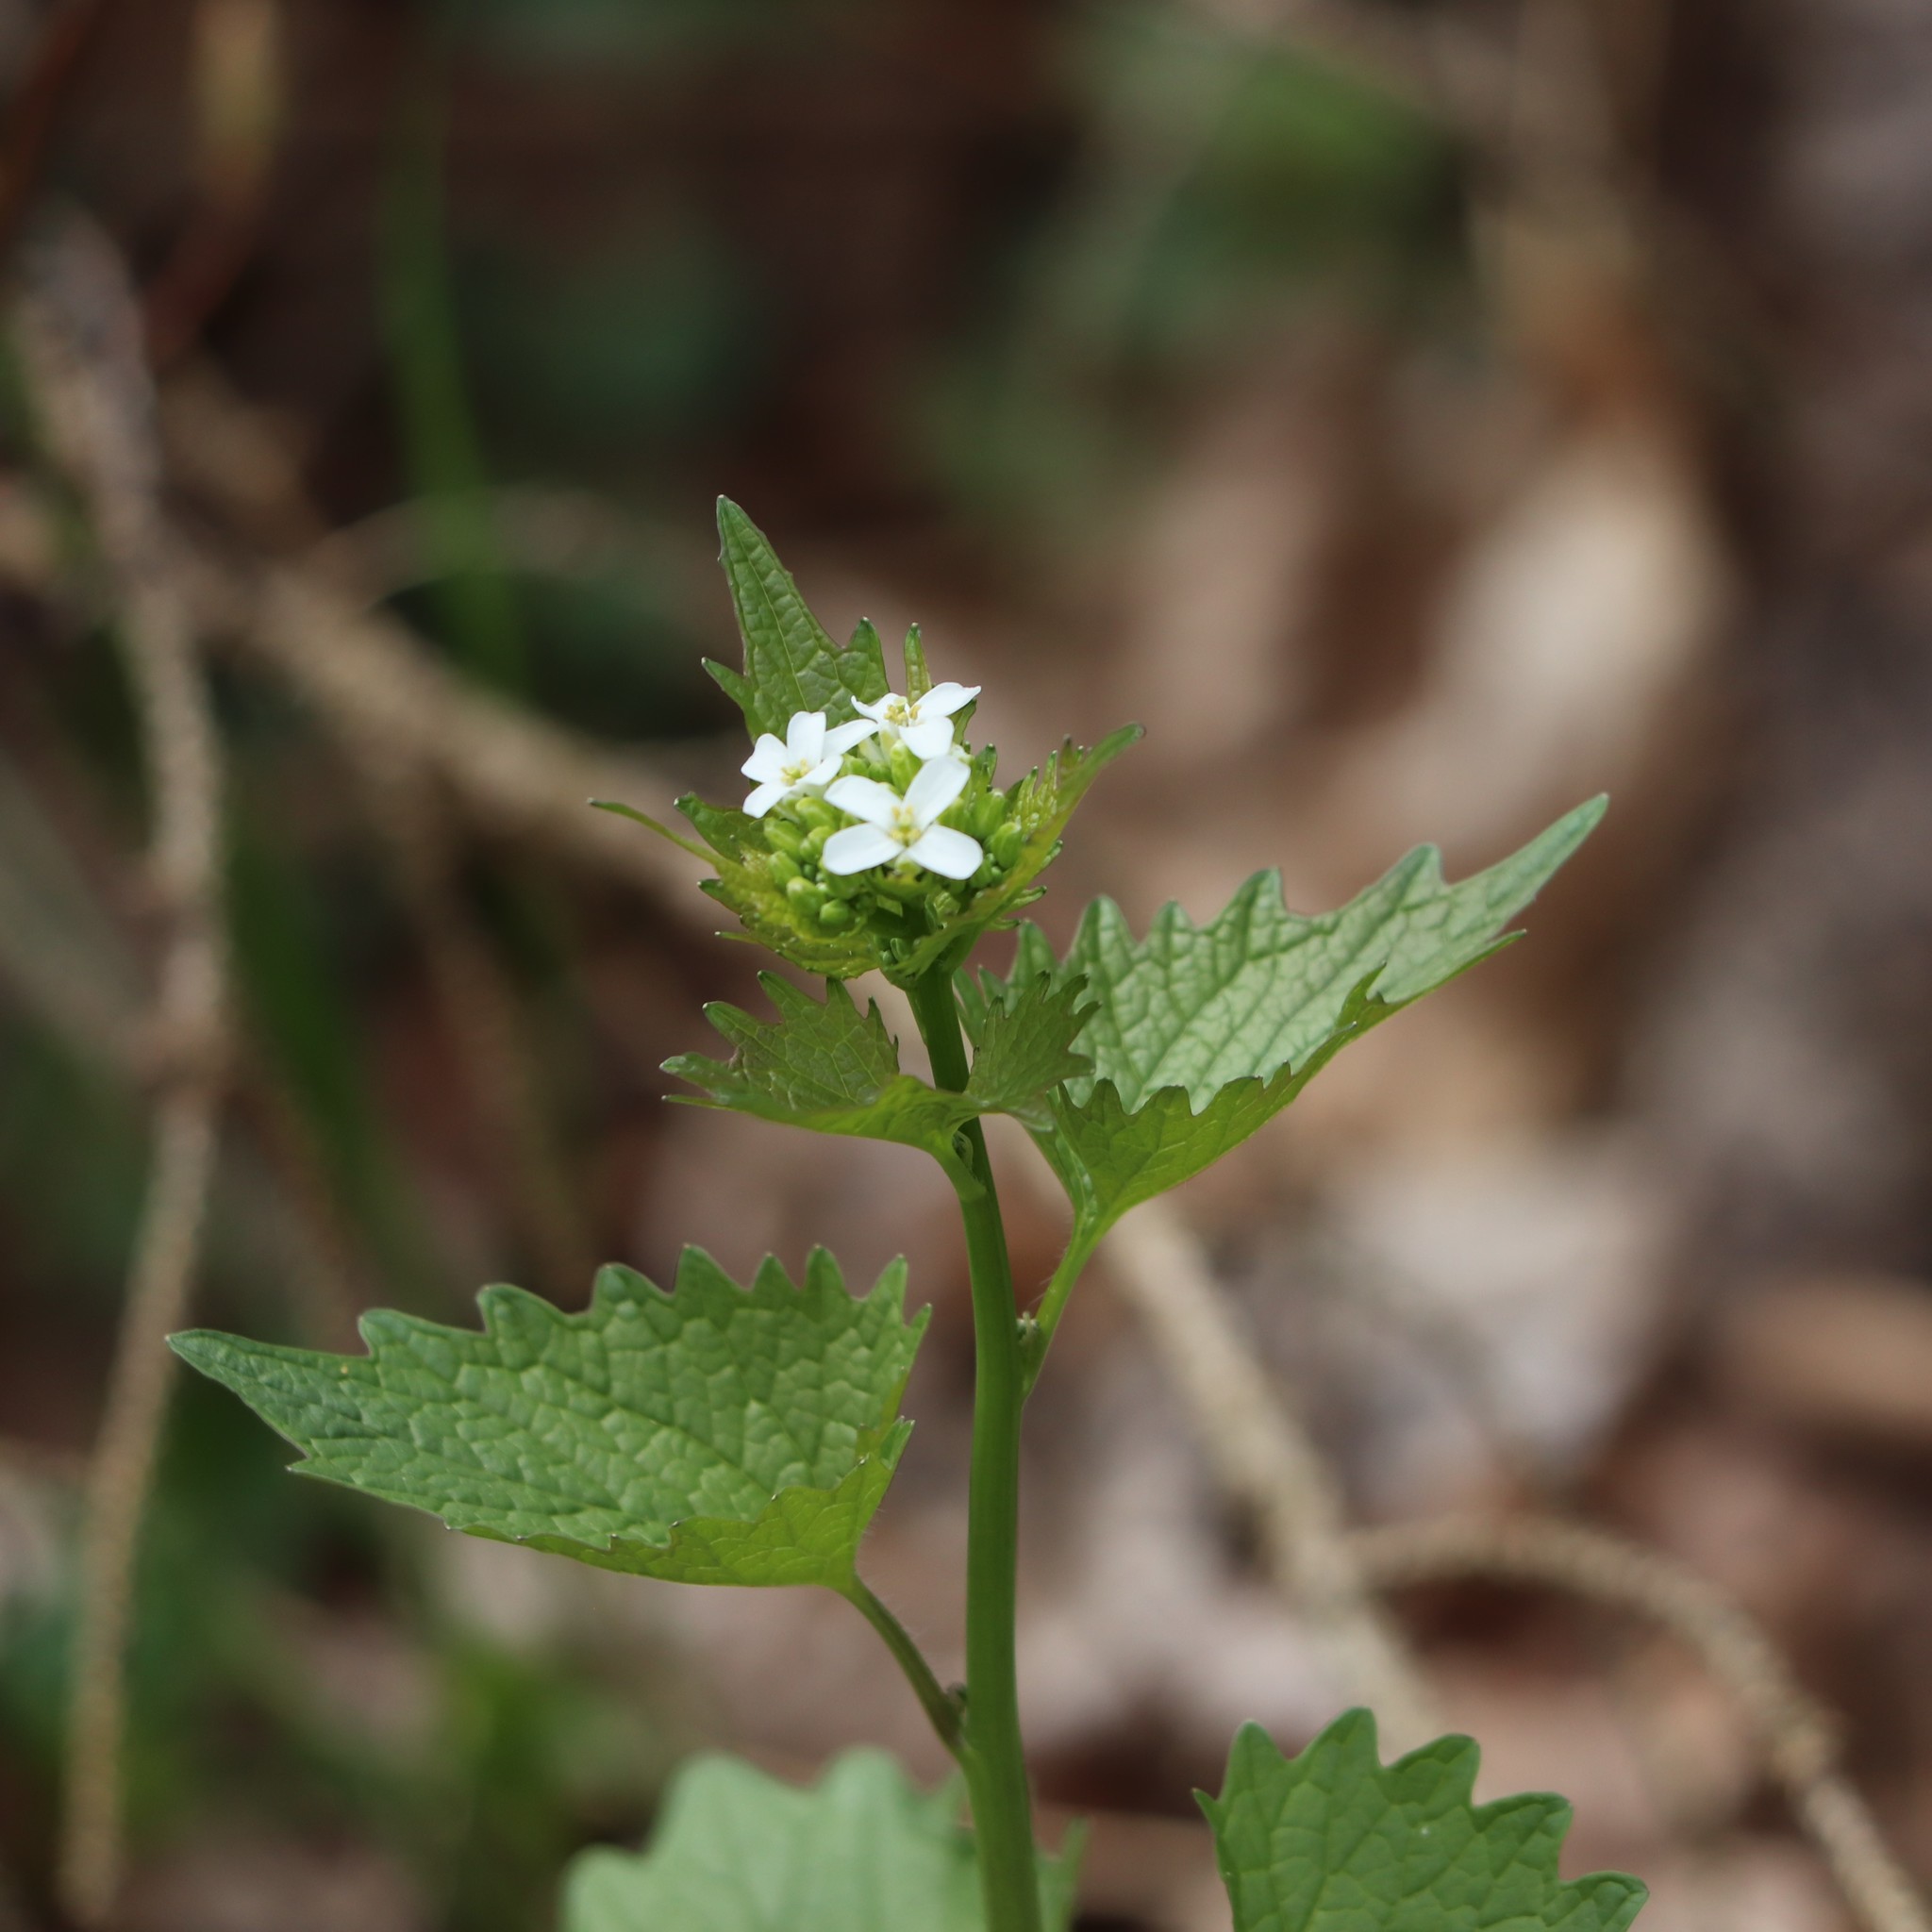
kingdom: Plantae
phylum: Tracheophyta
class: Magnoliopsida
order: Brassicales
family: Brassicaceae
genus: Alliaria
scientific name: Alliaria petiolata
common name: Garlic mustard
